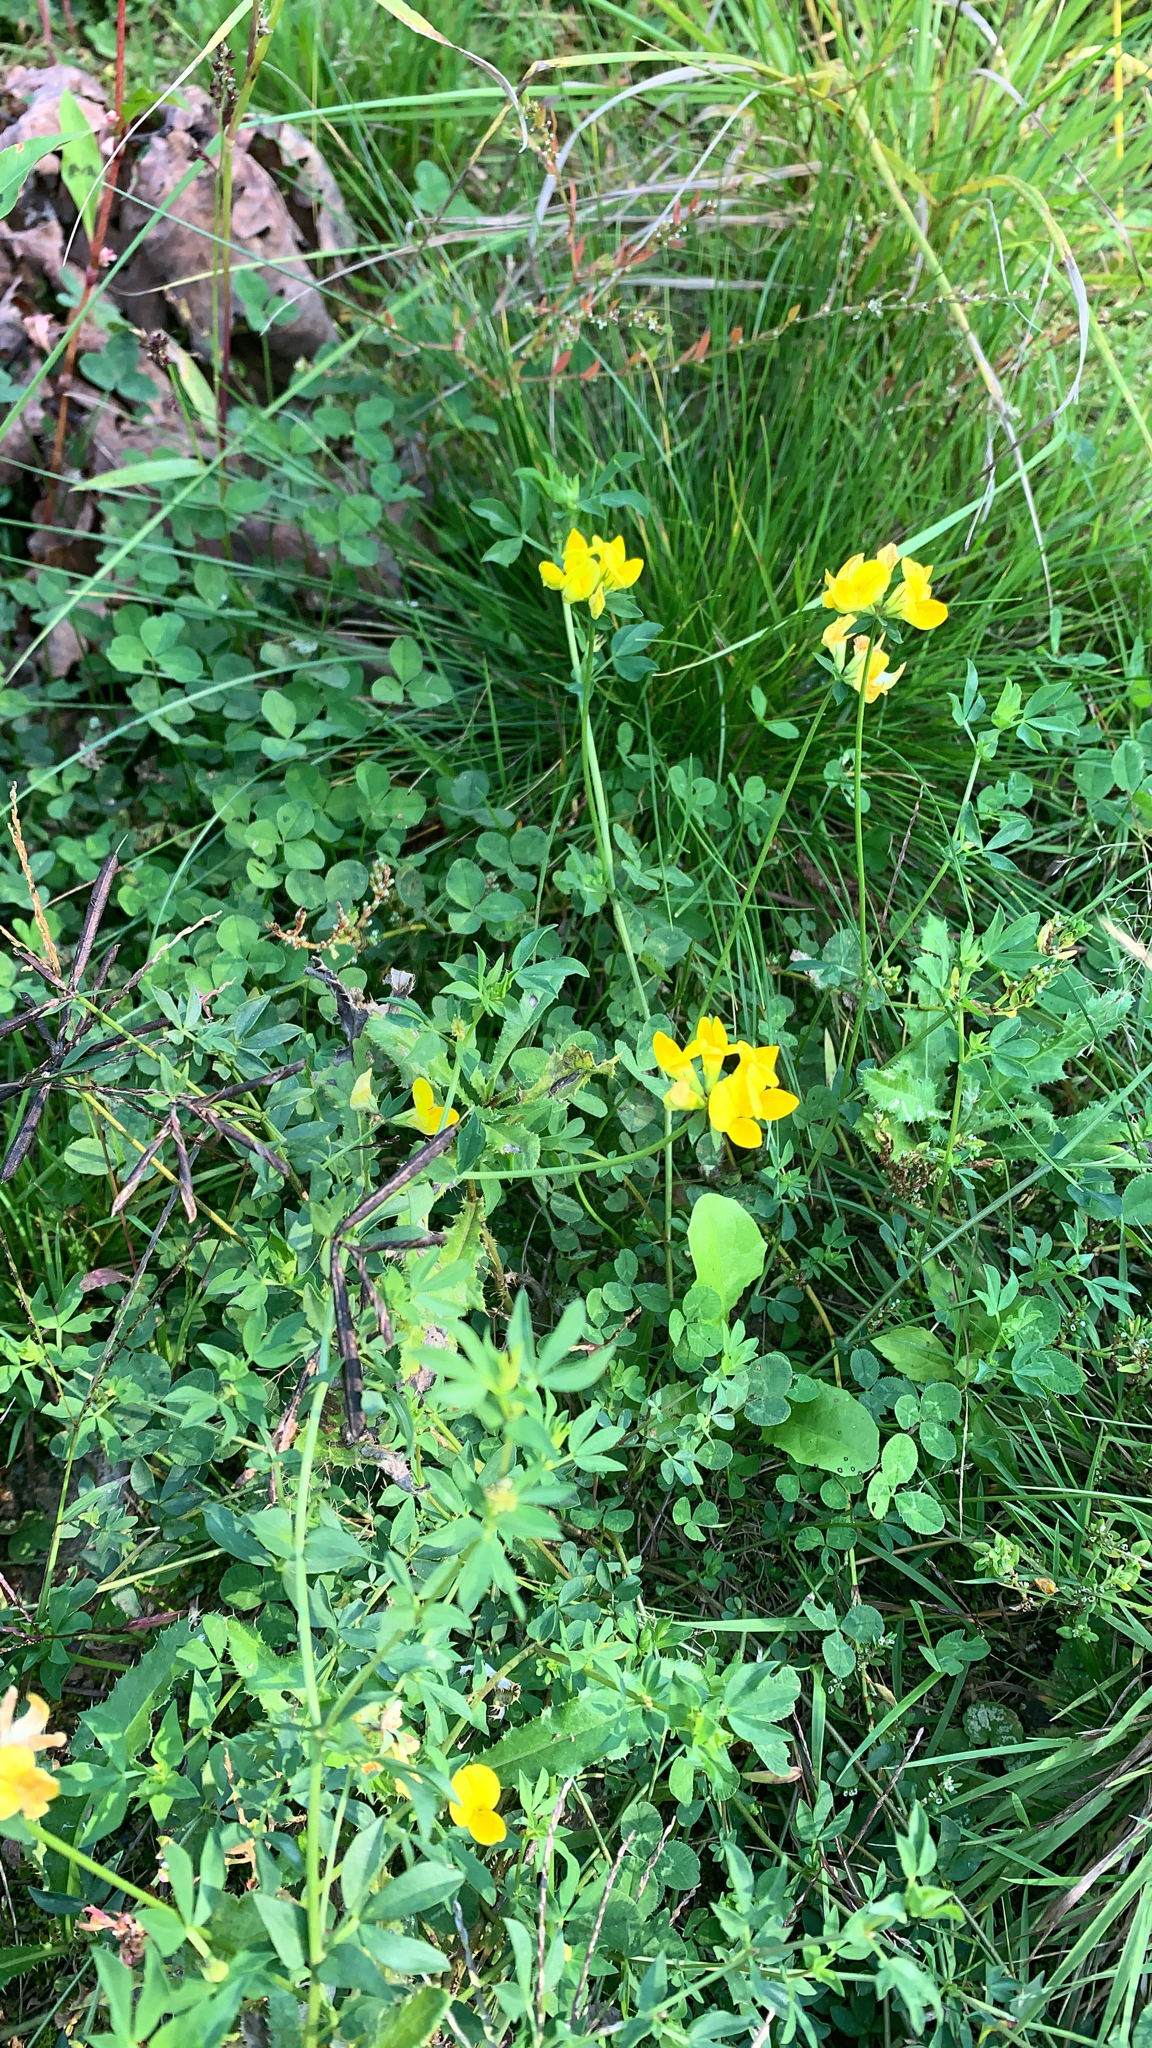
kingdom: Plantae
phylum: Tracheophyta
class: Magnoliopsida
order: Fabales
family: Fabaceae
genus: Lotus
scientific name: Lotus corniculatus
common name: Common bird's-foot-trefoil
